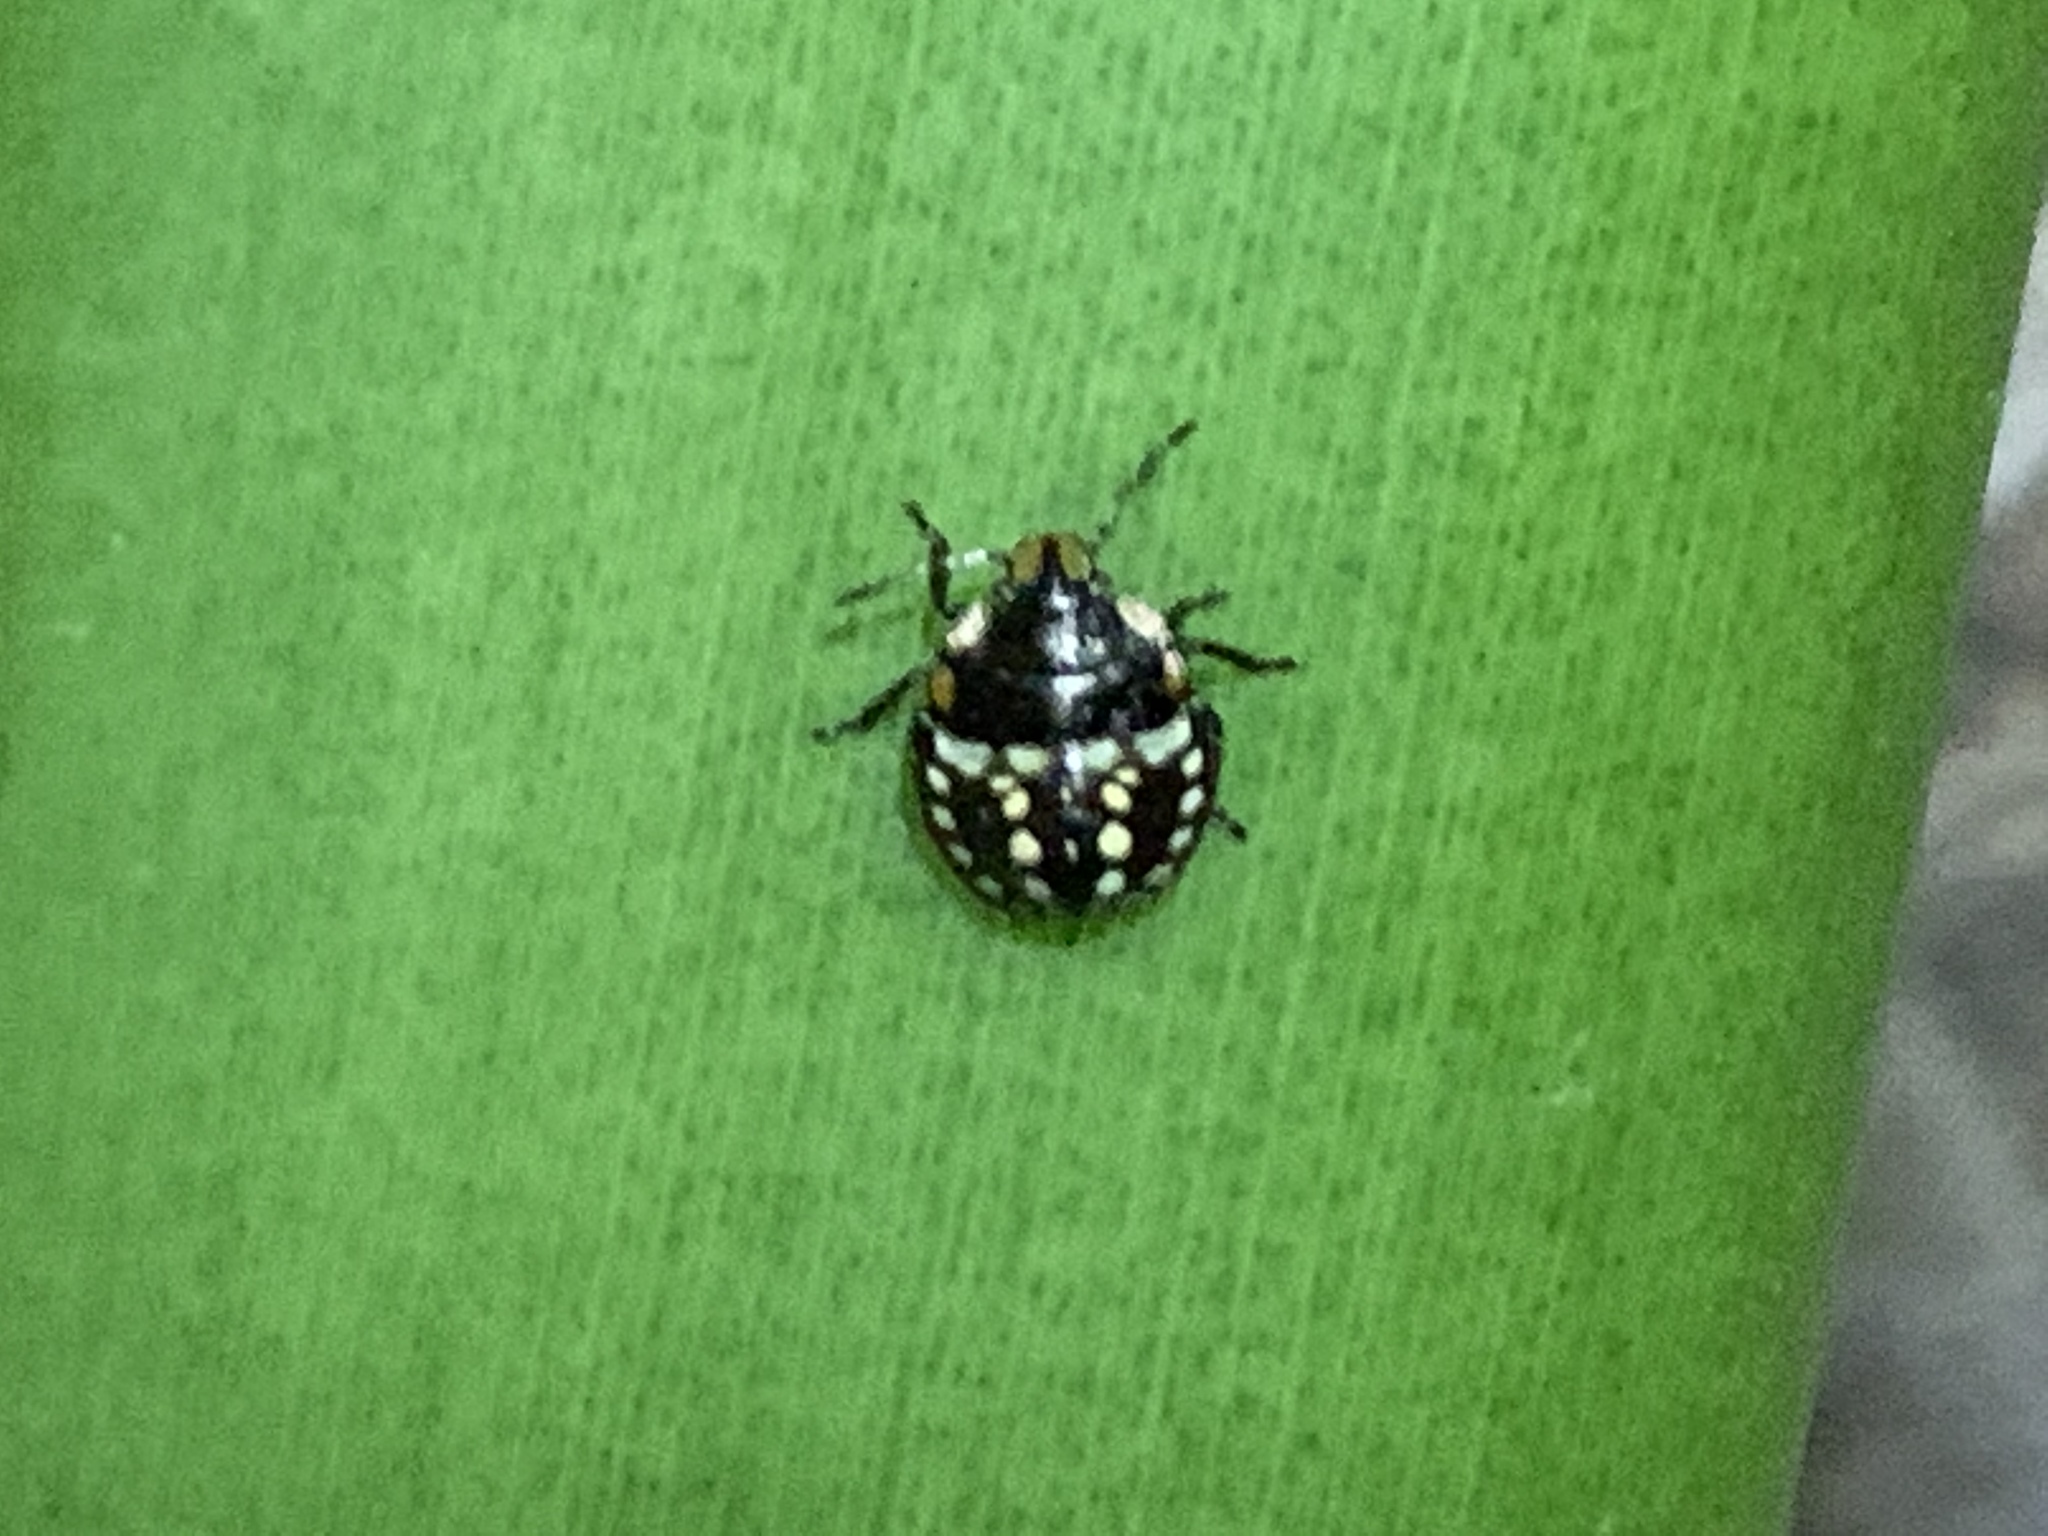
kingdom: Animalia
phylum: Arthropoda
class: Insecta
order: Hemiptera
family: Pentatomidae
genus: Nezara
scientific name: Nezara viridula
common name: Southern green stink bug
